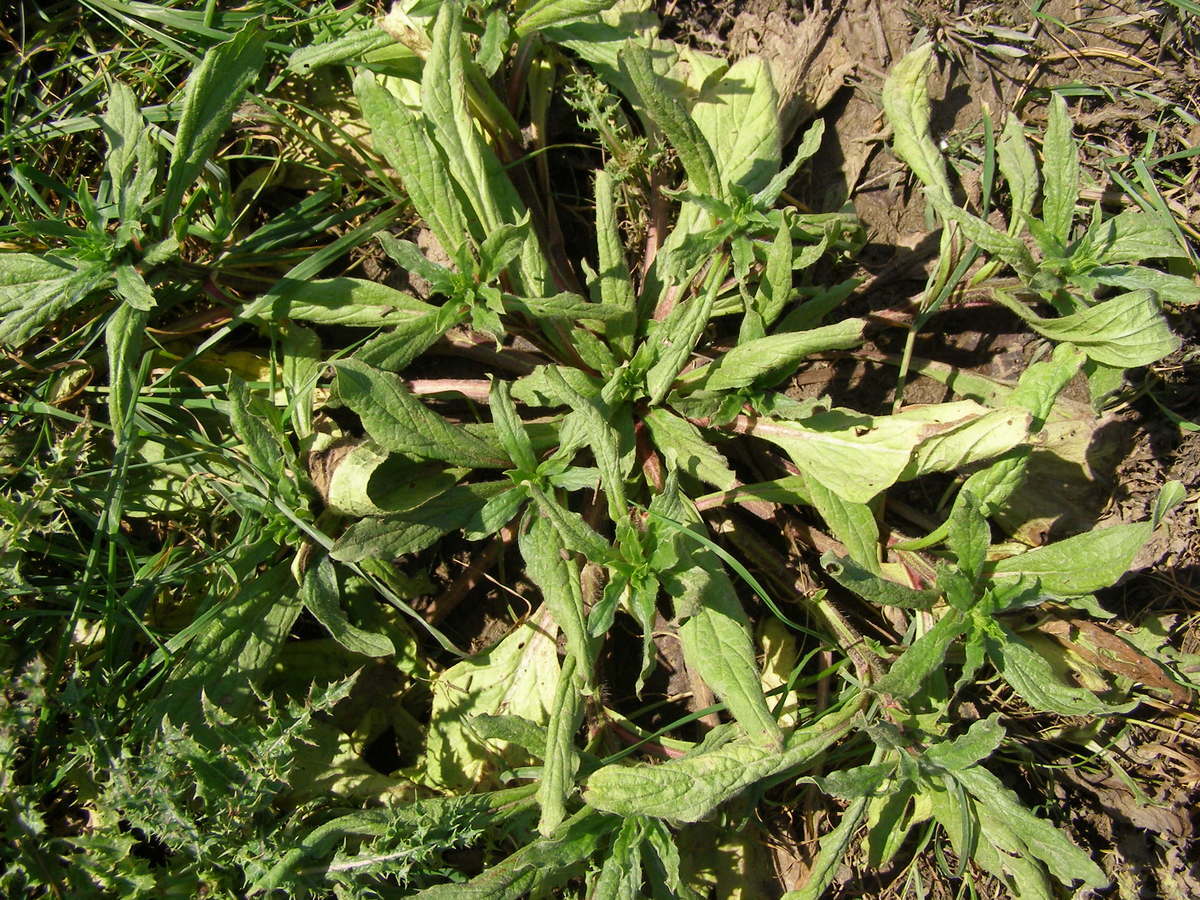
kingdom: Plantae
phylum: Tracheophyta
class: Magnoliopsida
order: Boraginales
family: Boraginaceae
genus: Echium
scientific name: Echium plantagineum
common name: Purple viper's-bugloss
